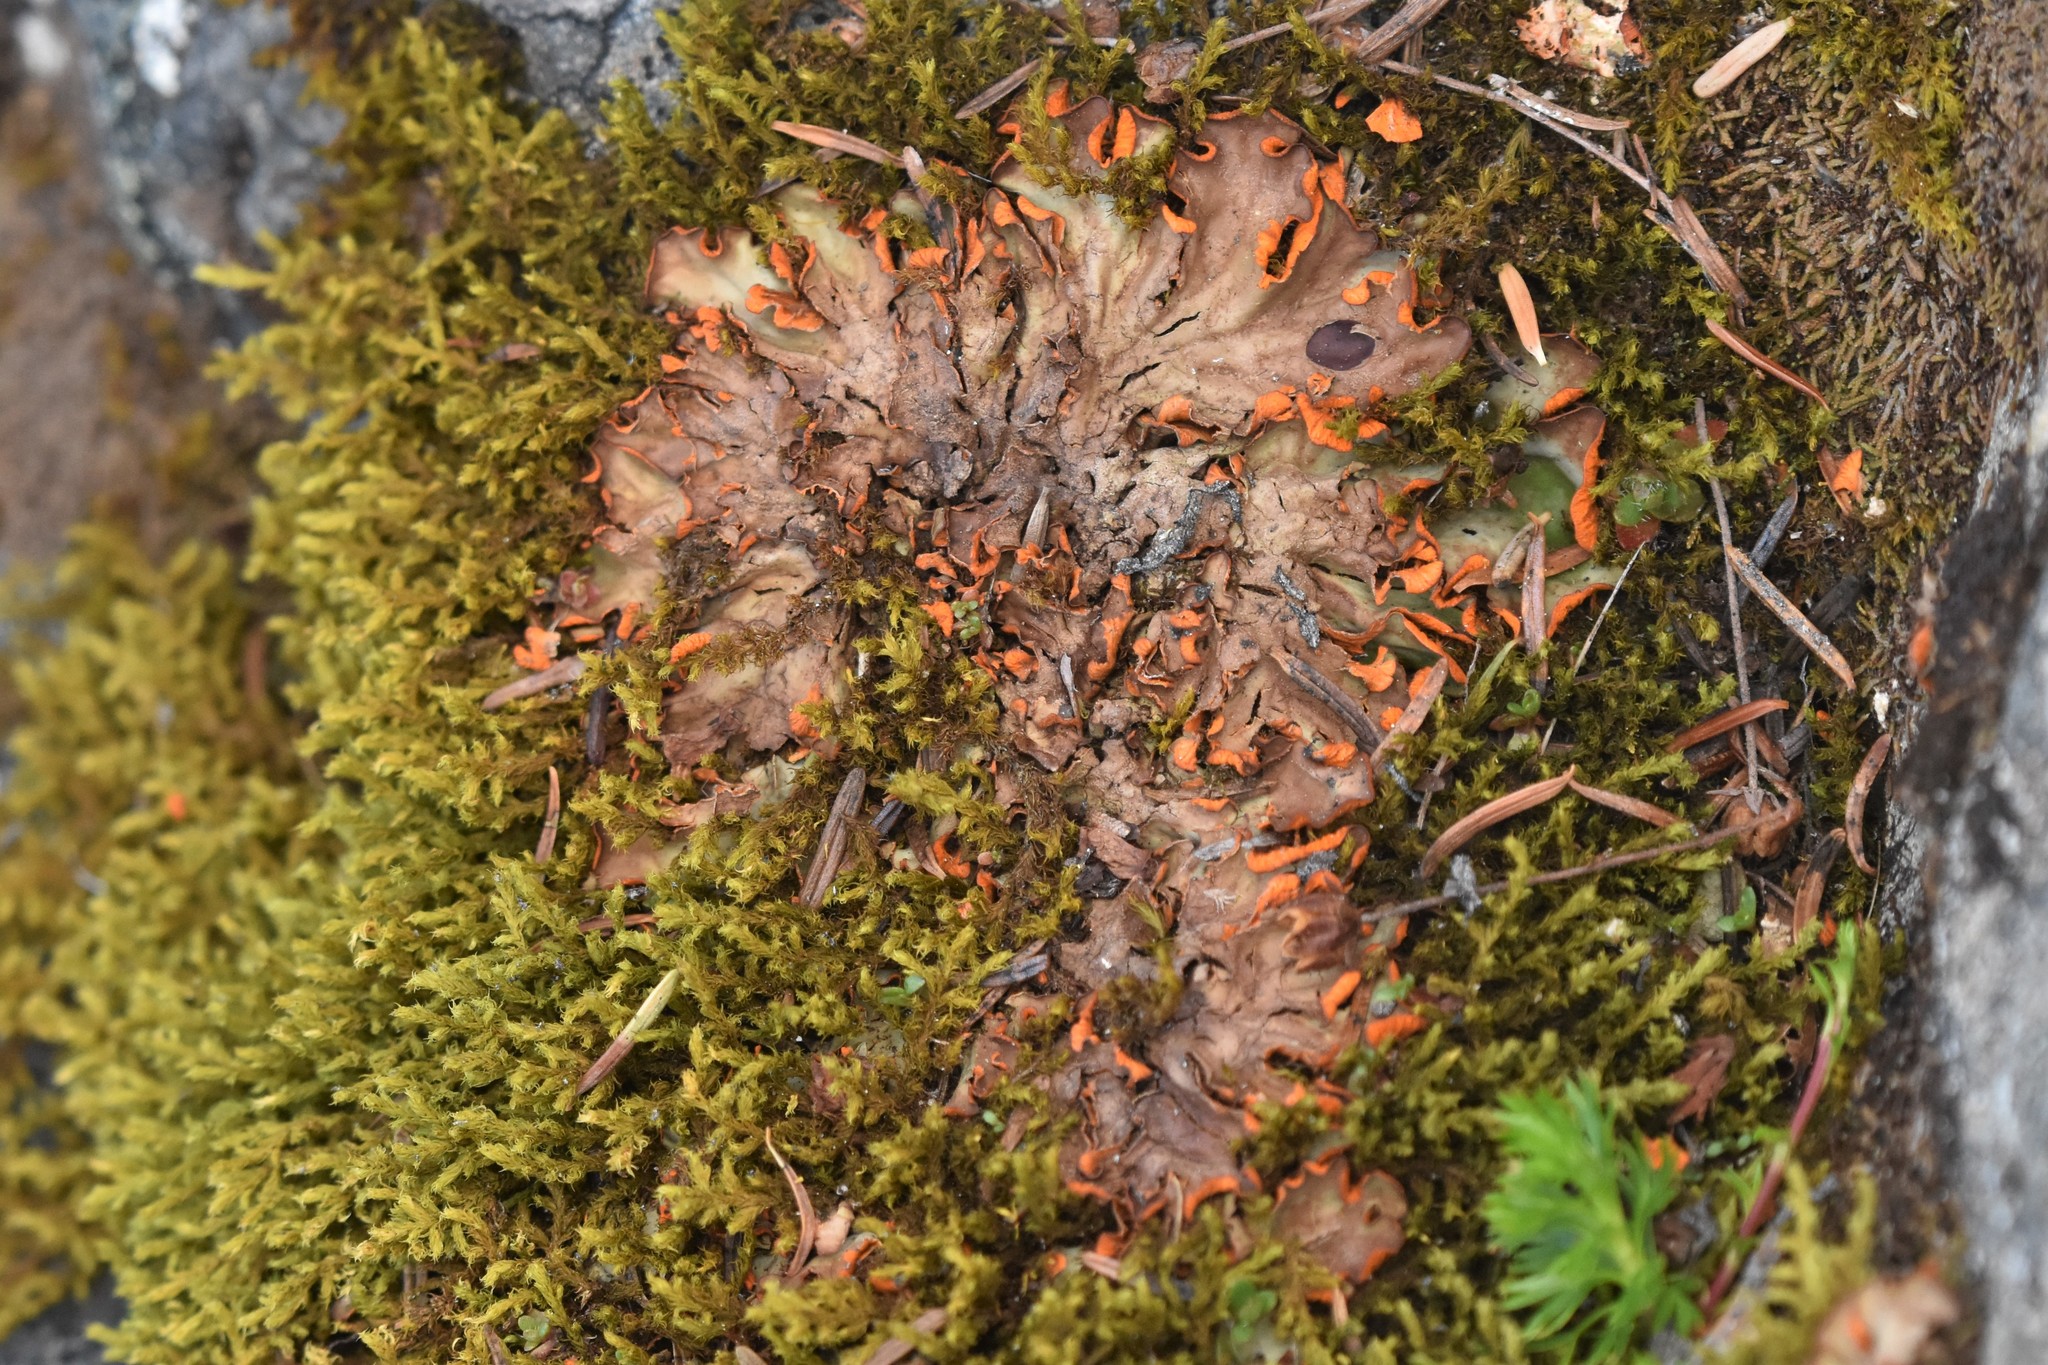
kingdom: Fungi
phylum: Ascomycota
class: Lecanoromycetes
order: Peltigerales
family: Peltigeraceae
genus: Solorina
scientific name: Solorina crocea
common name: Mountain saffron
